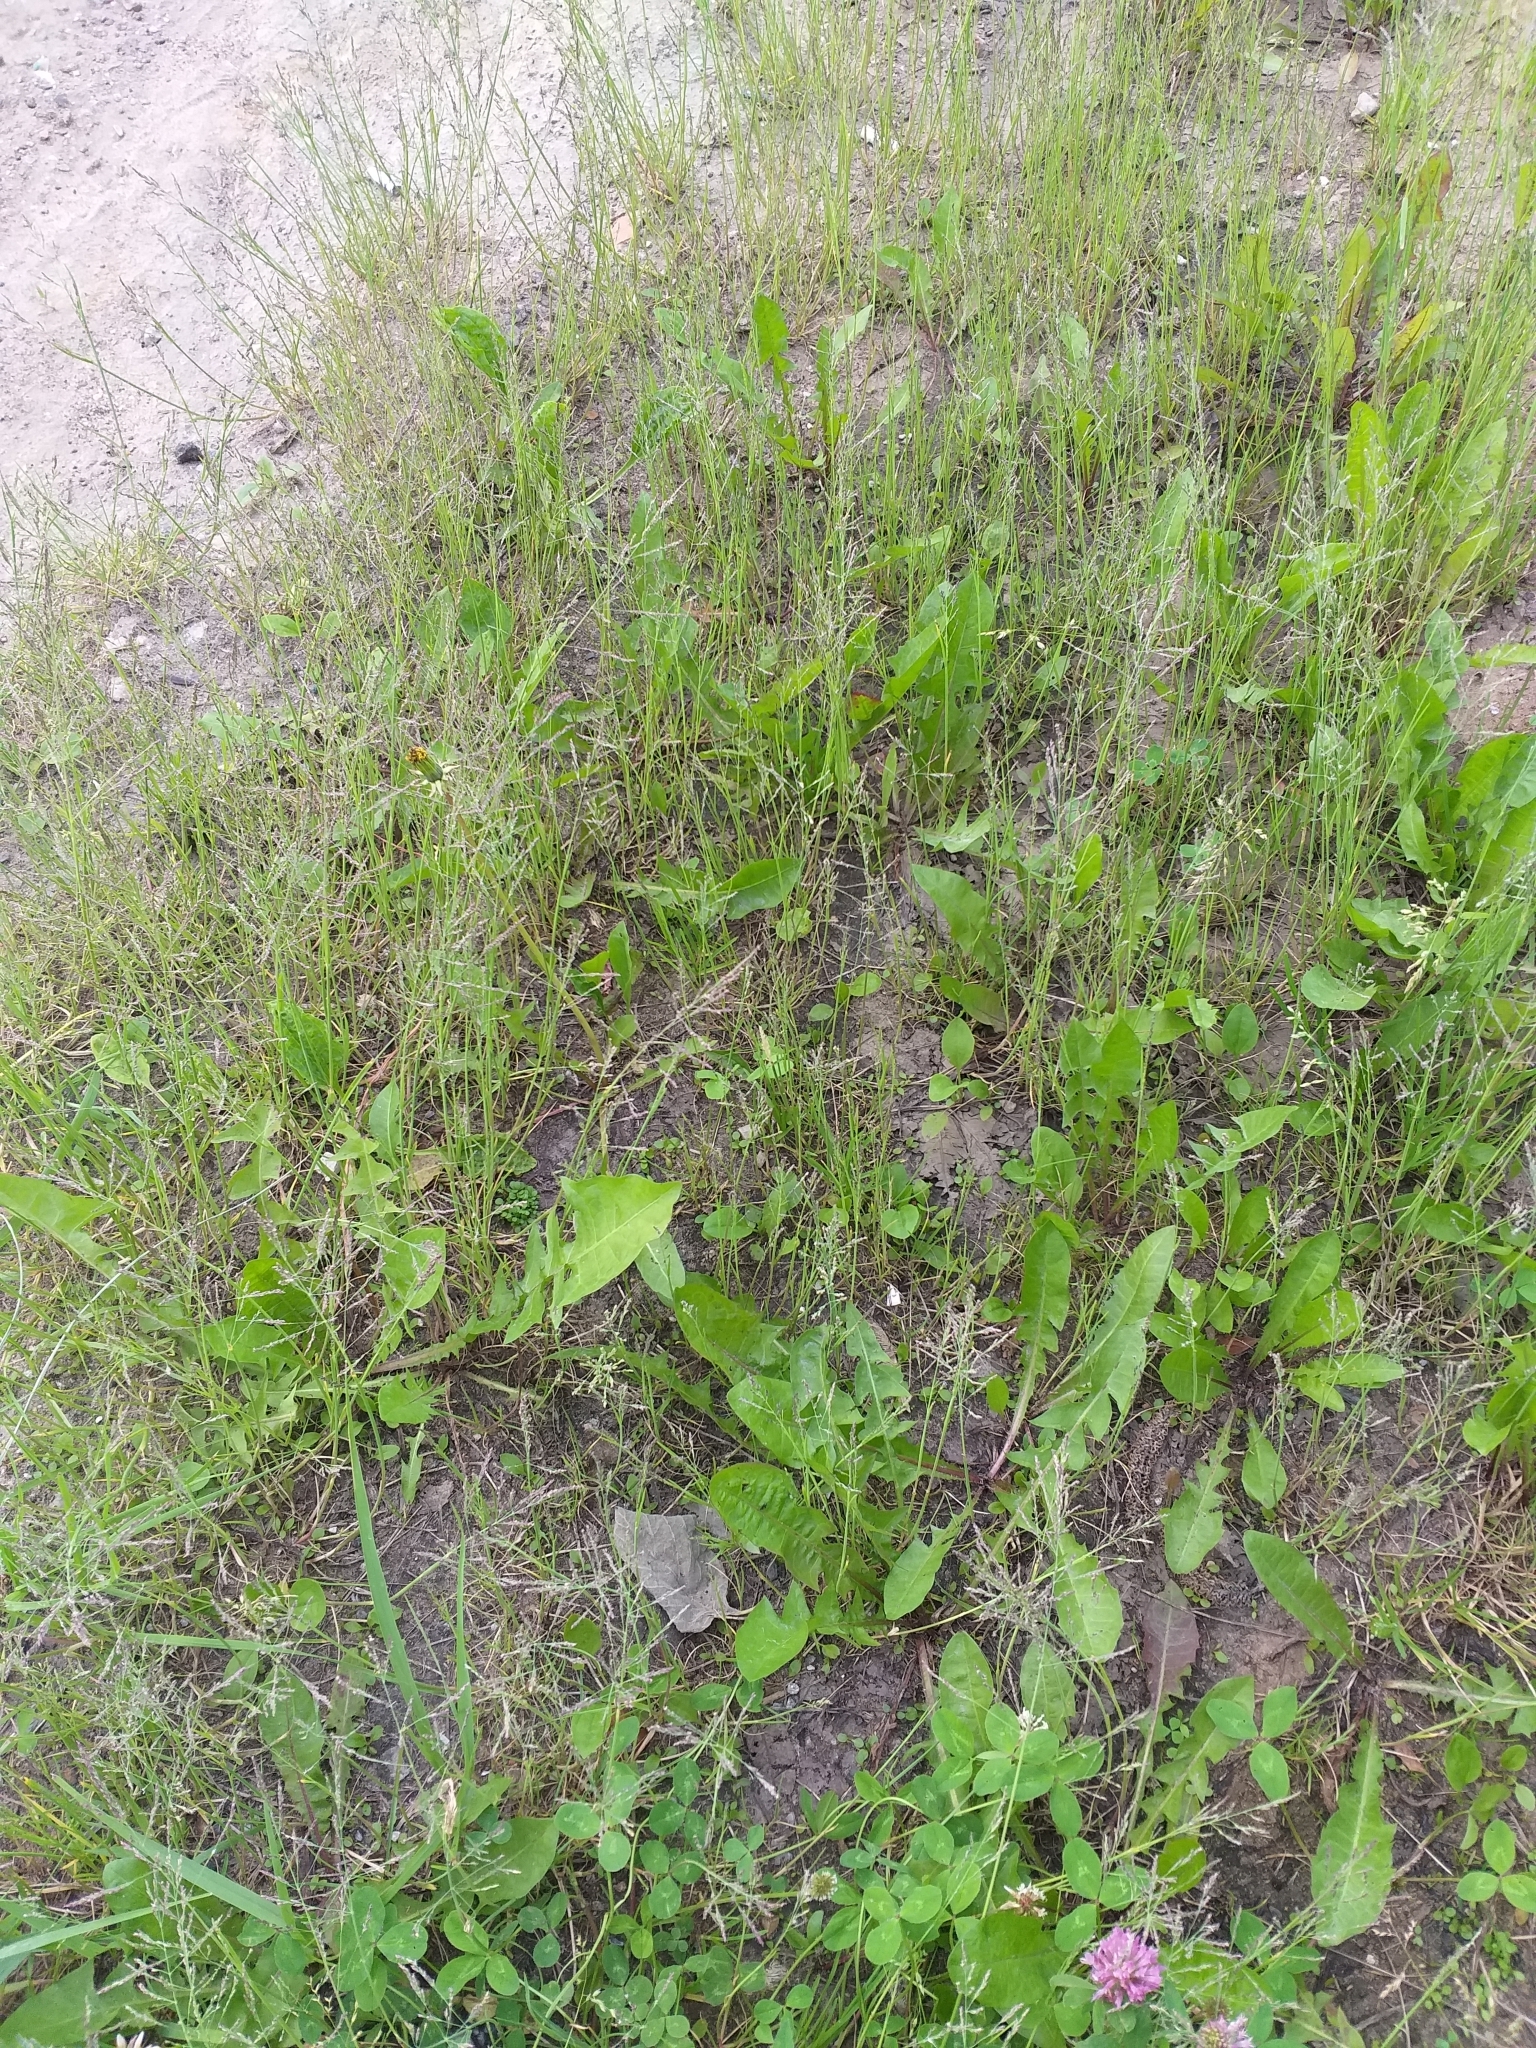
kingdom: Plantae
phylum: Tracheophyta
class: Liliopsida
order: Poales
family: Poaceae
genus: Puccinellia
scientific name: Puccinellia distans
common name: Weeping alkaligrass
